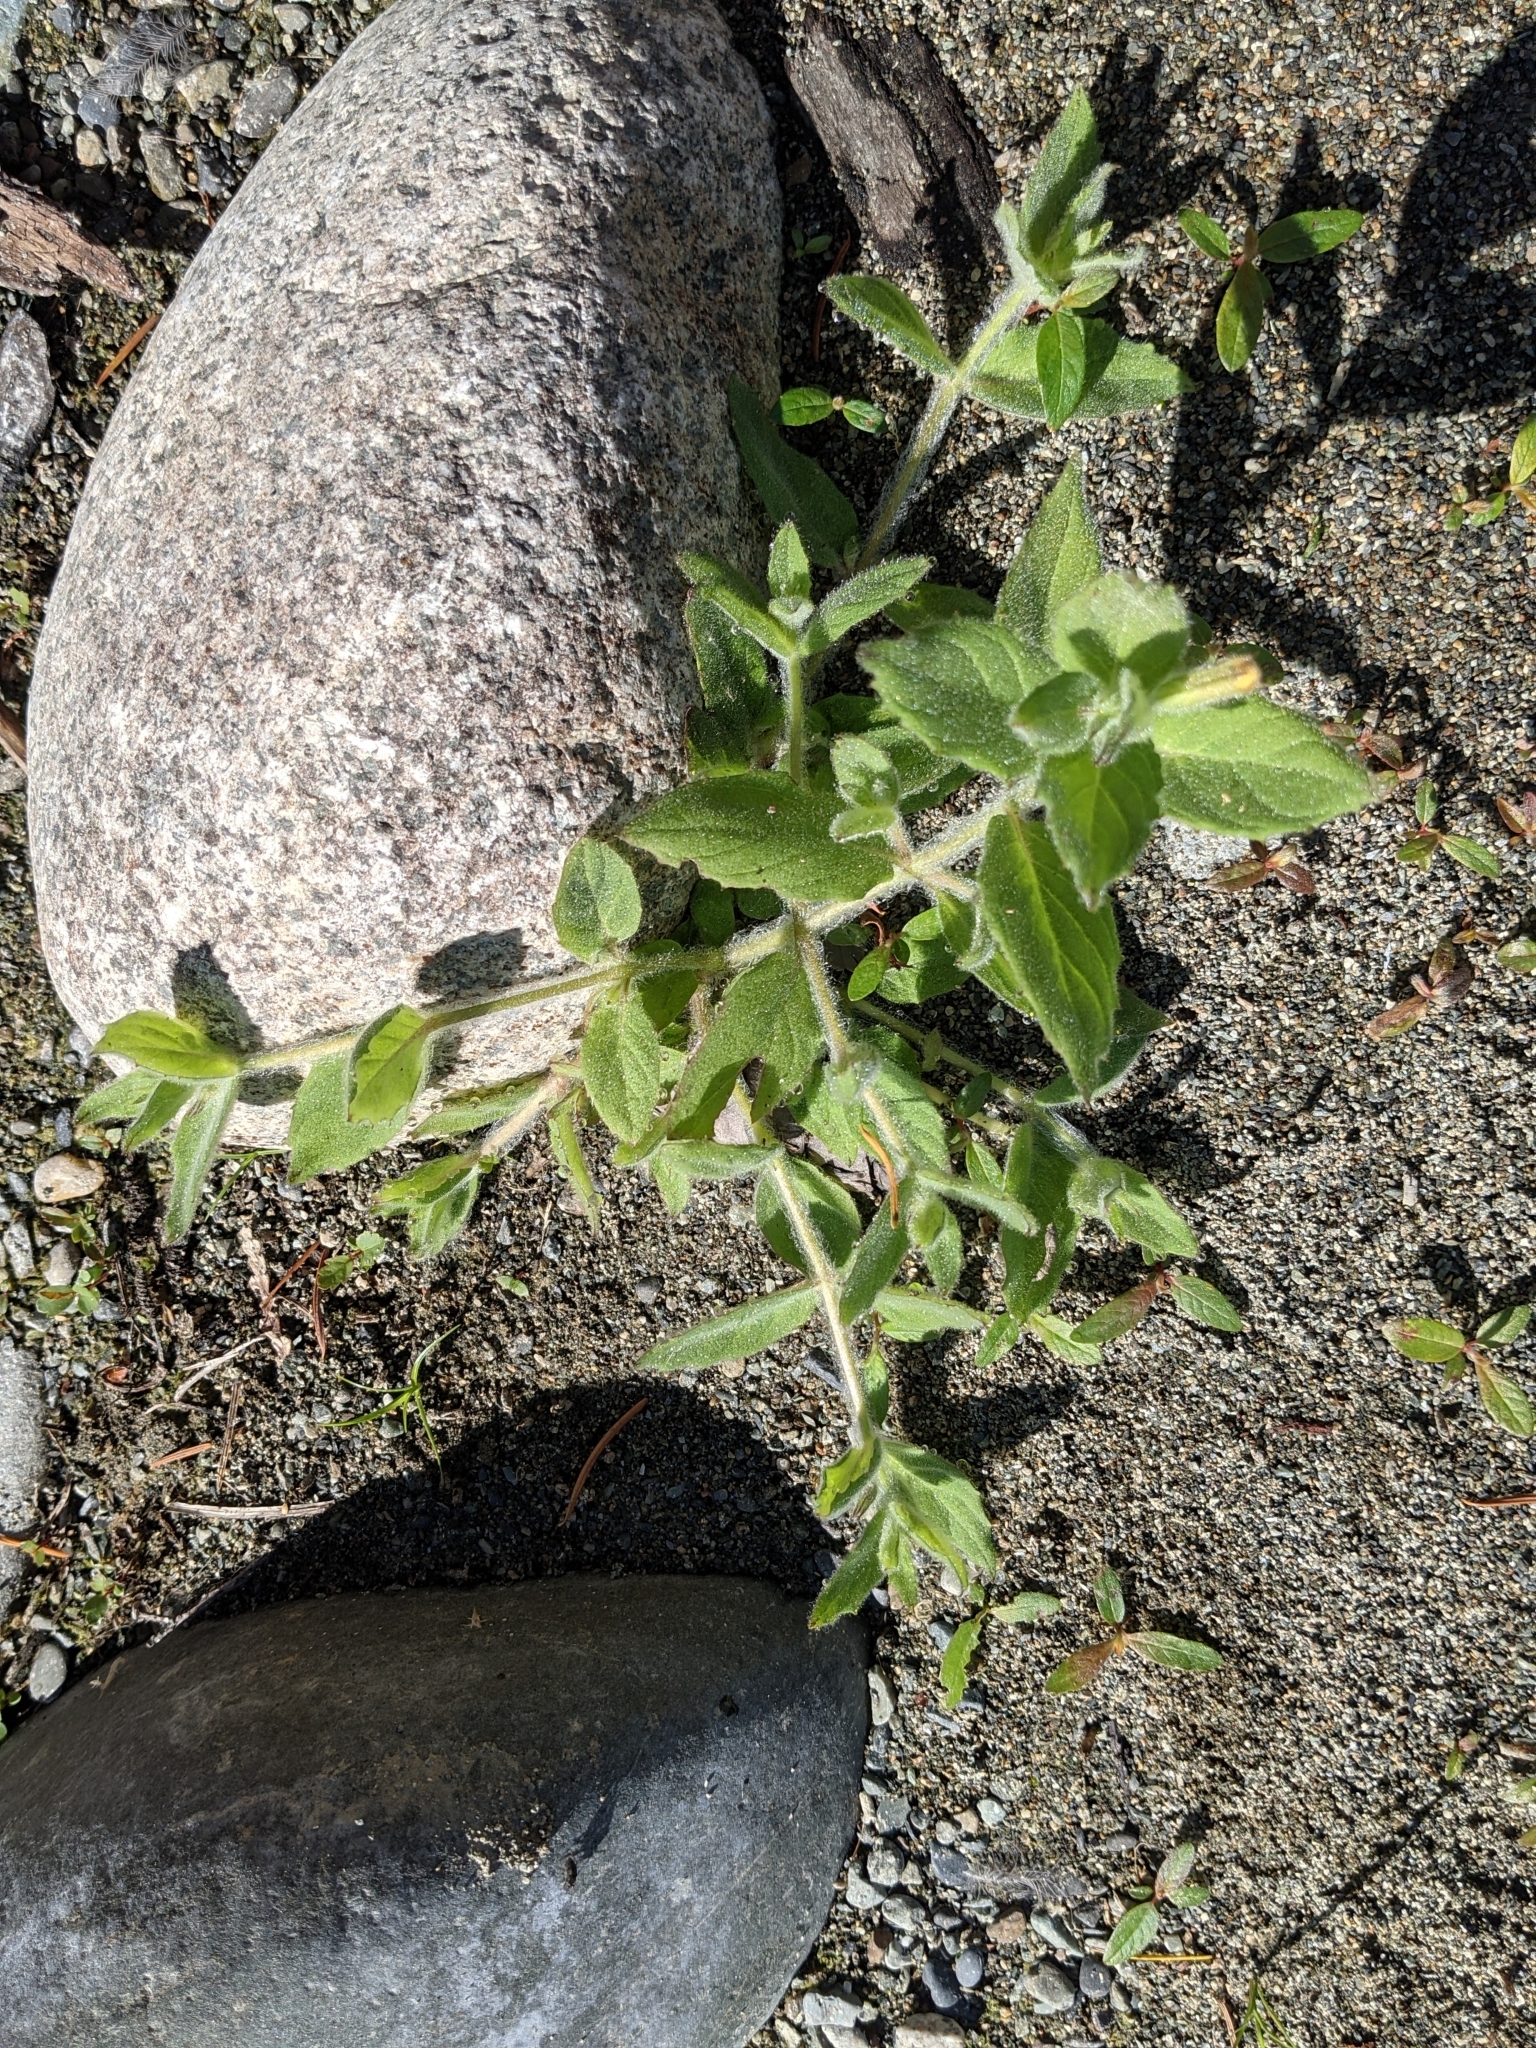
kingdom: Plantae
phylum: Tracheophyta
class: Magnoliopsida
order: Lamiales
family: Phrymaceae
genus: Erythranthe
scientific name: Erythranthe ptilota
